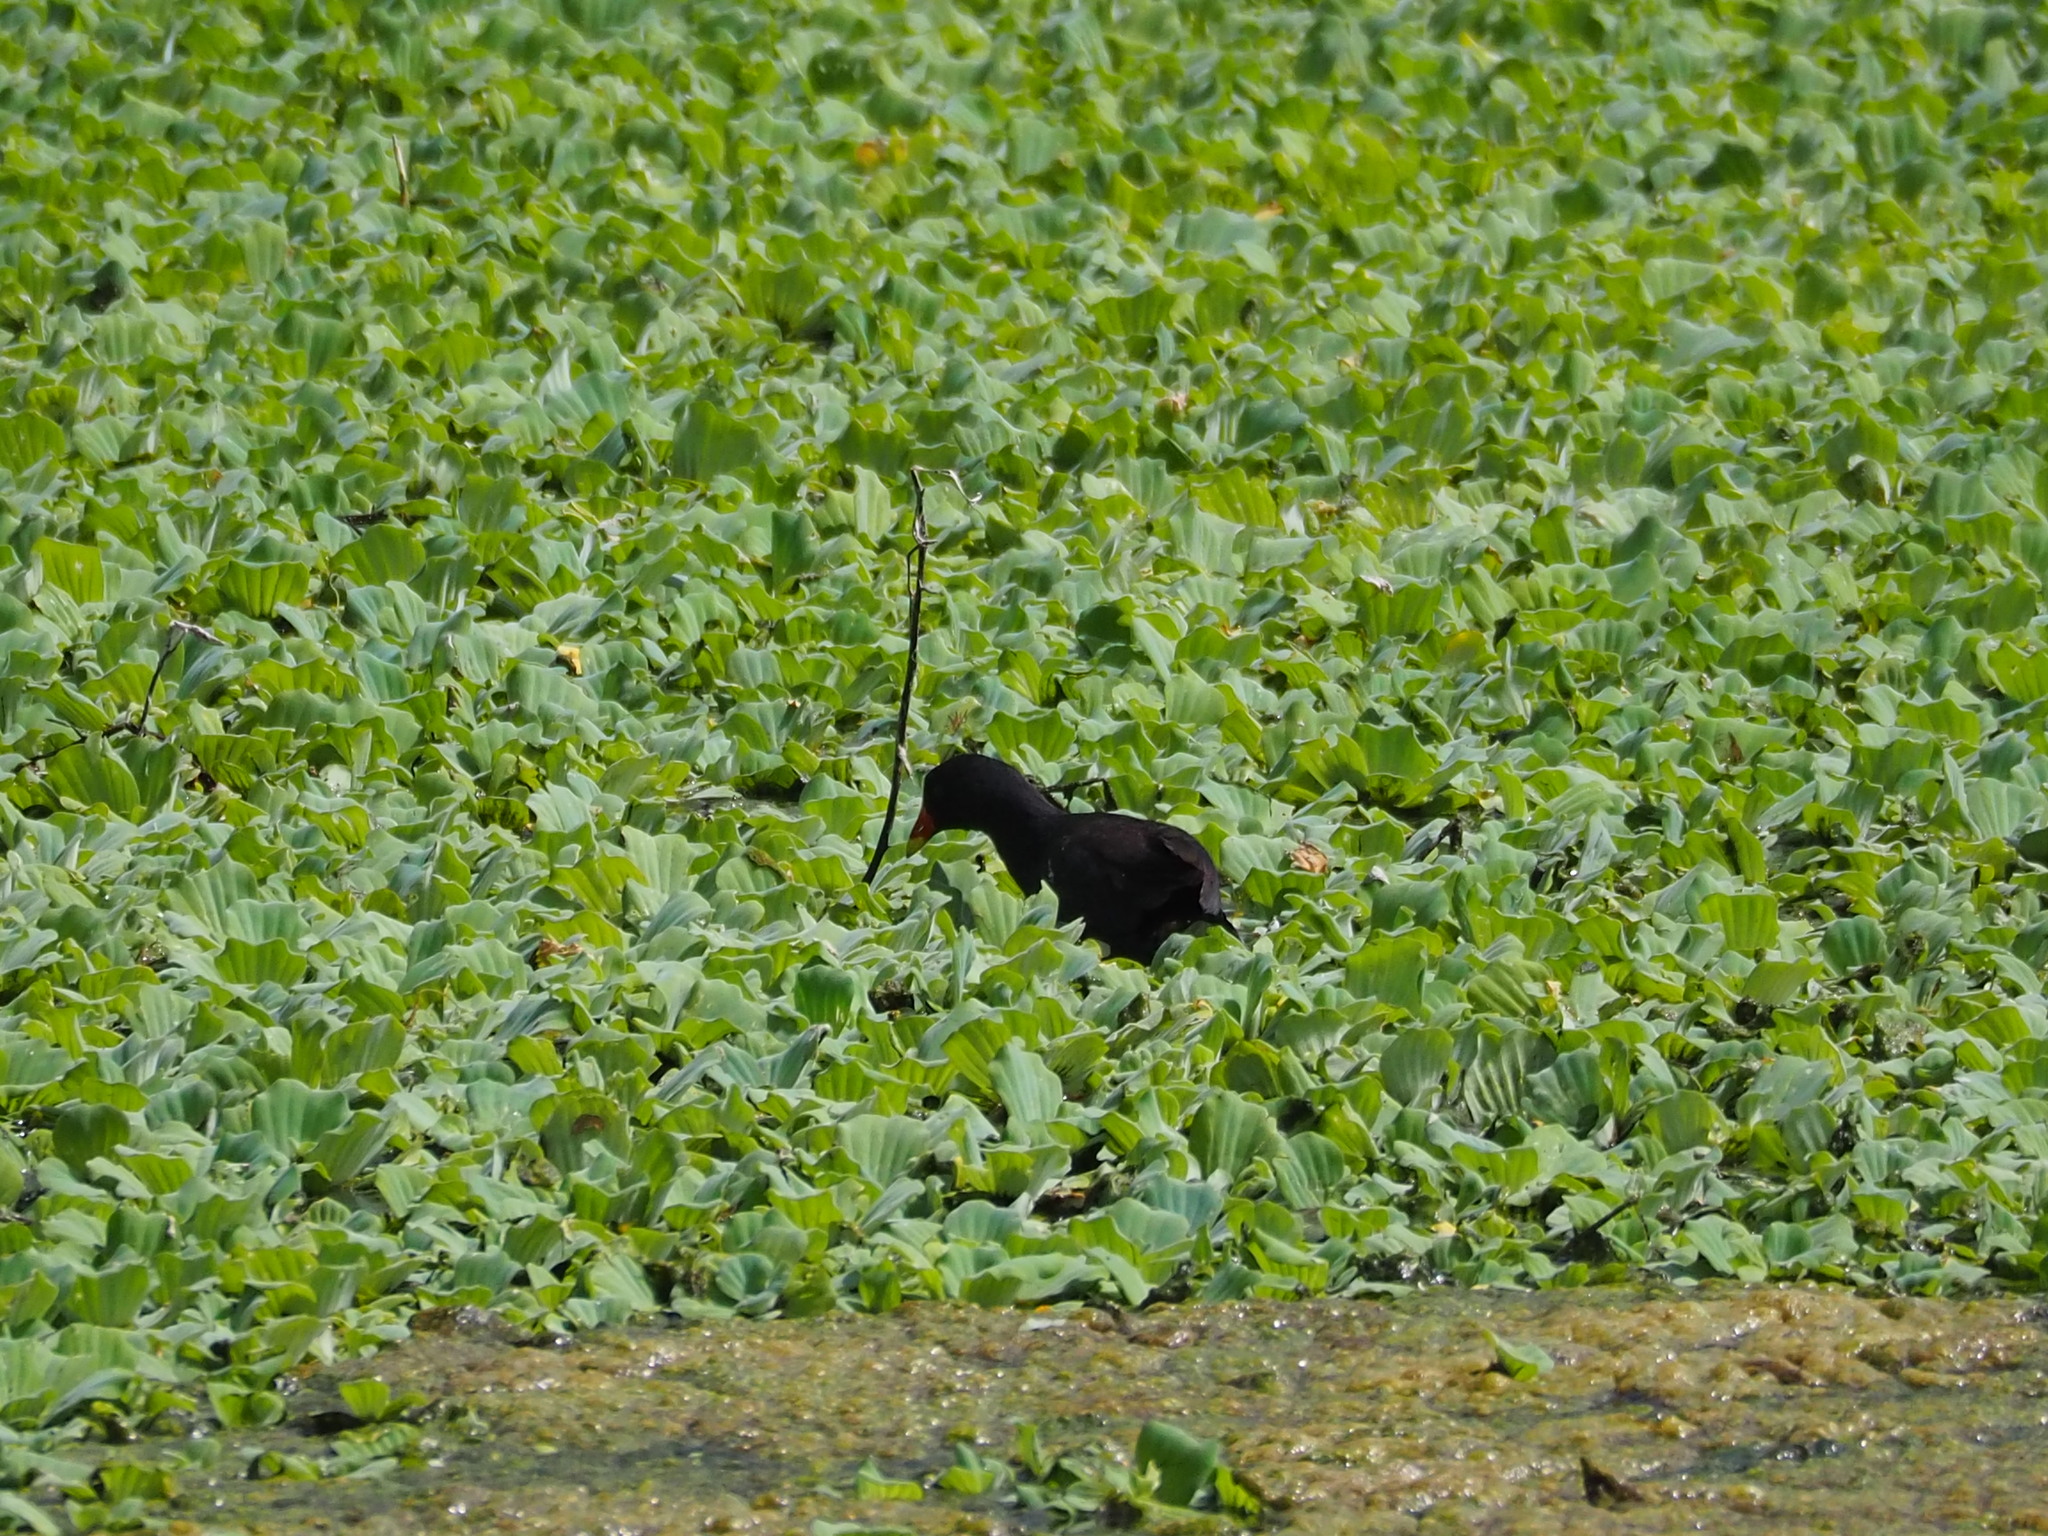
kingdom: Animalia
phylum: Chordata
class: Aves
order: Gruiformes
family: Rallidae
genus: Gallinula
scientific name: Gallinula chloropus
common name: Common moorhen
